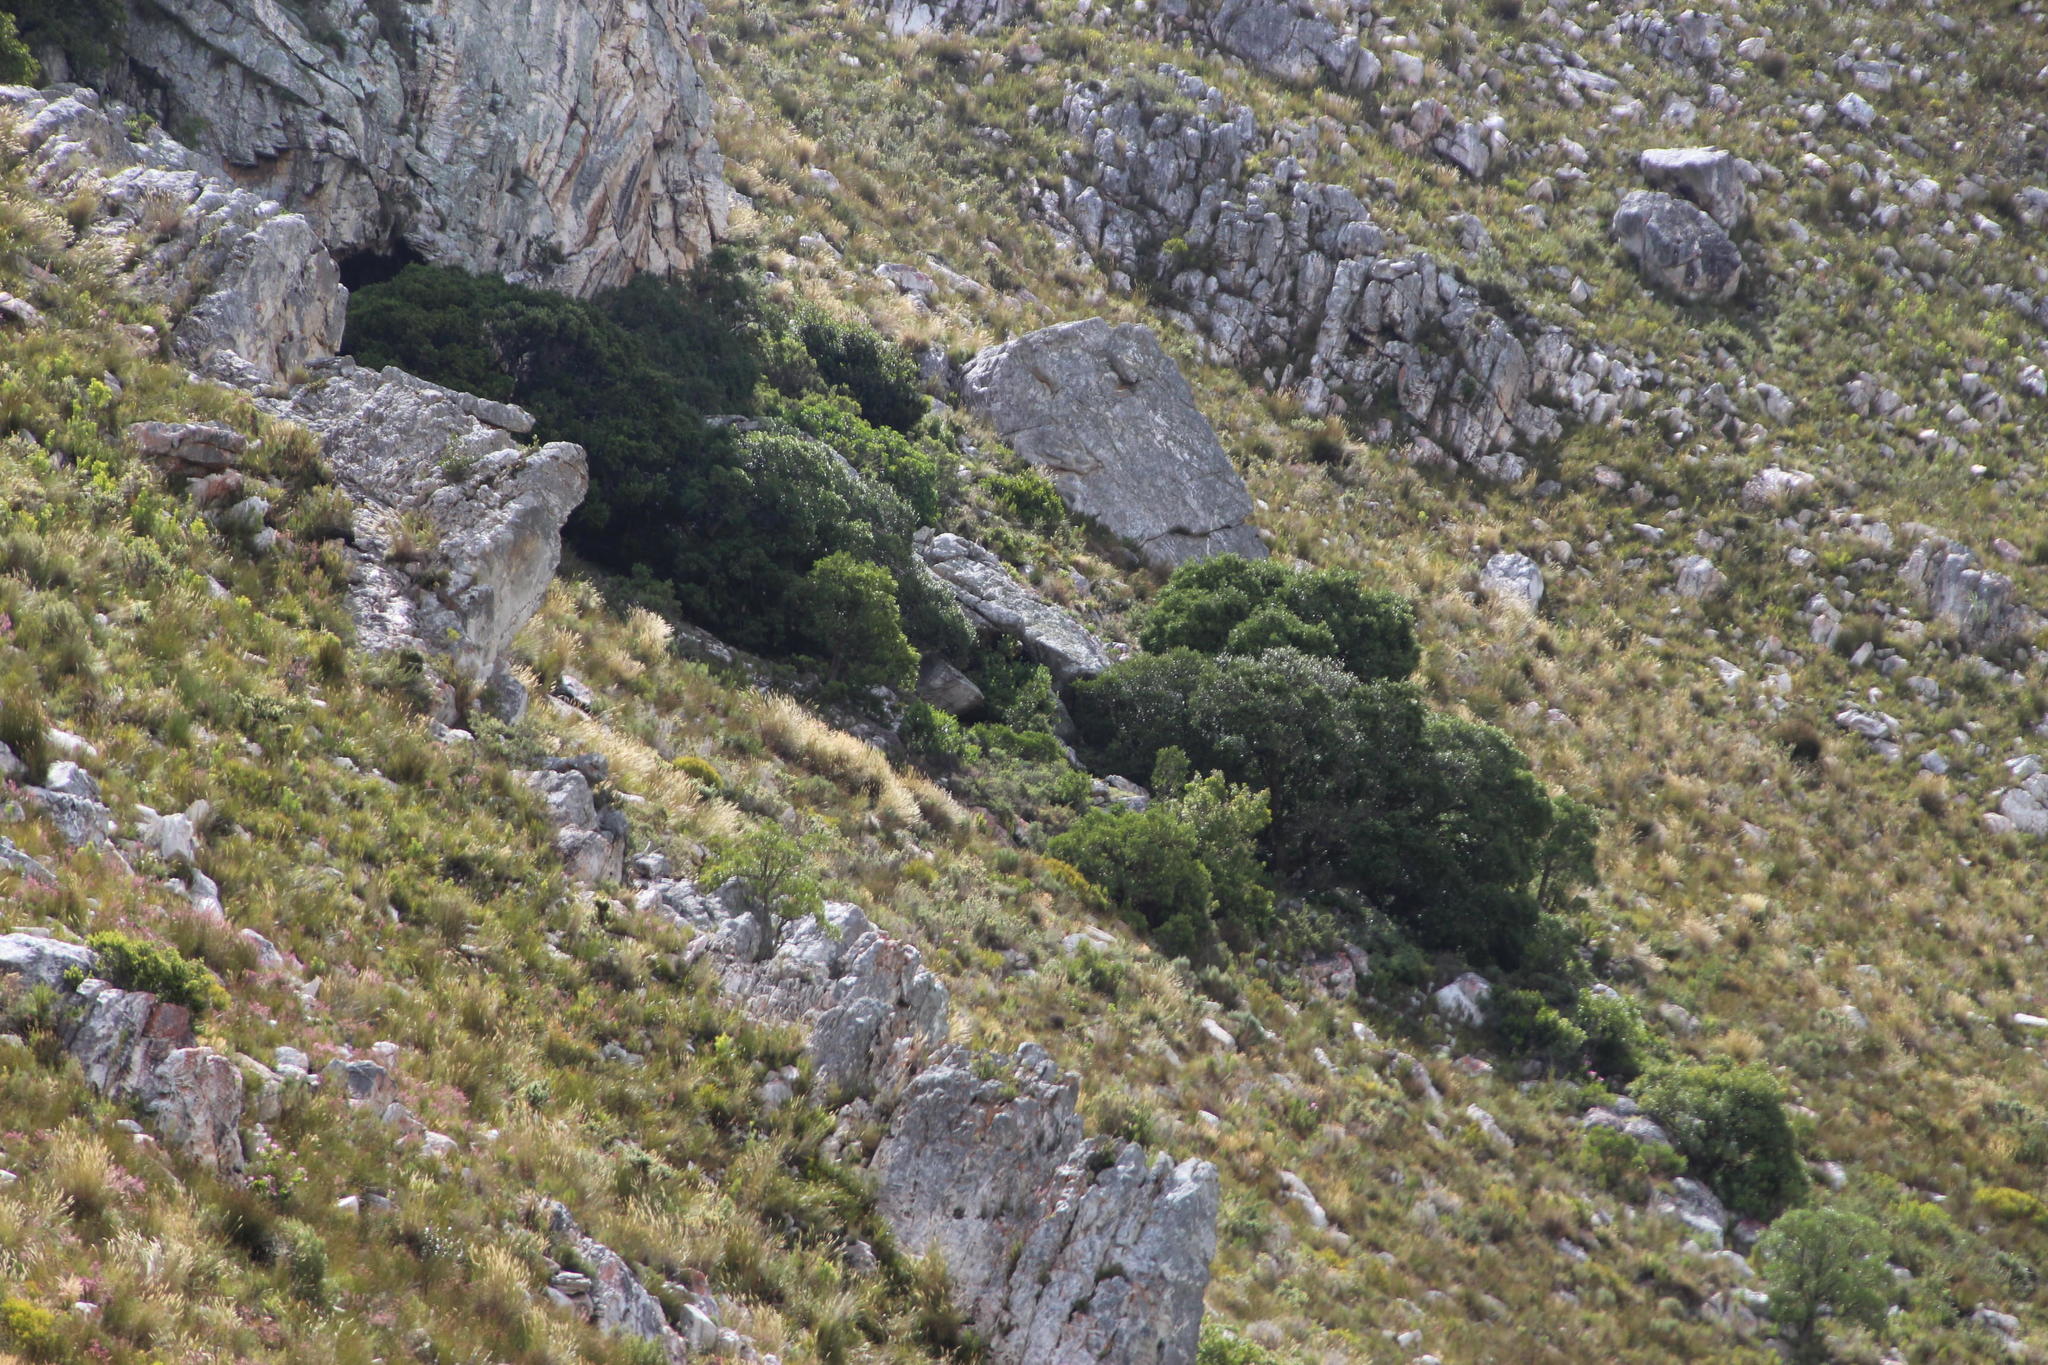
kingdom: Plantae
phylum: Tracheophyta
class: Magnoliopsida
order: Celastrales
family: Celastraceae
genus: Gymnosporia
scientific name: Gymnosporia laurina
